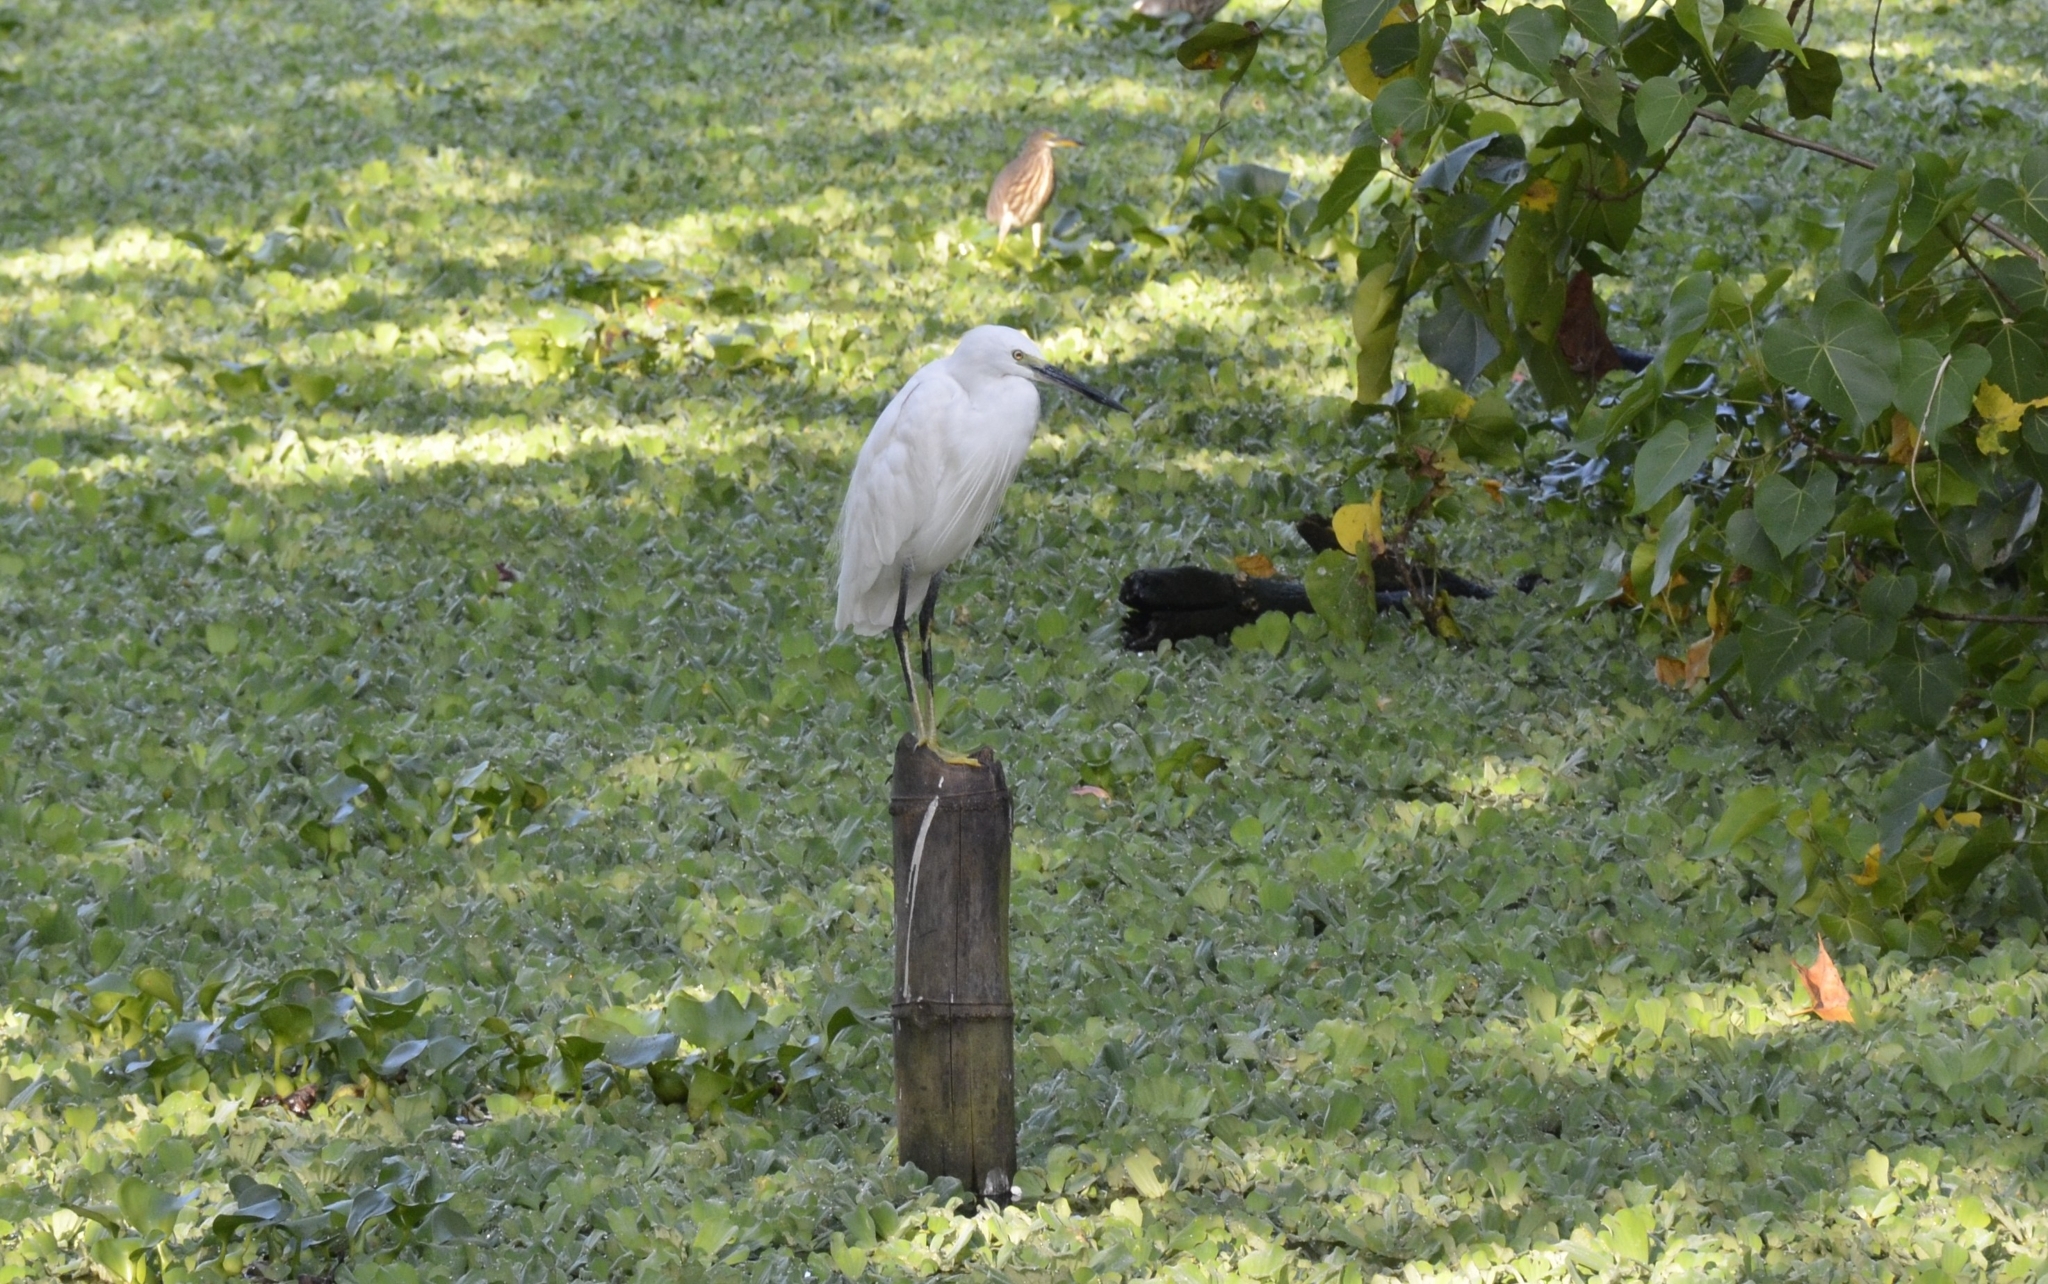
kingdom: Animalia
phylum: Chordata
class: Aves
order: Pelecaniformes
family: Ardeidae
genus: Egretta
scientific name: Egretta garzetta
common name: Little egret
